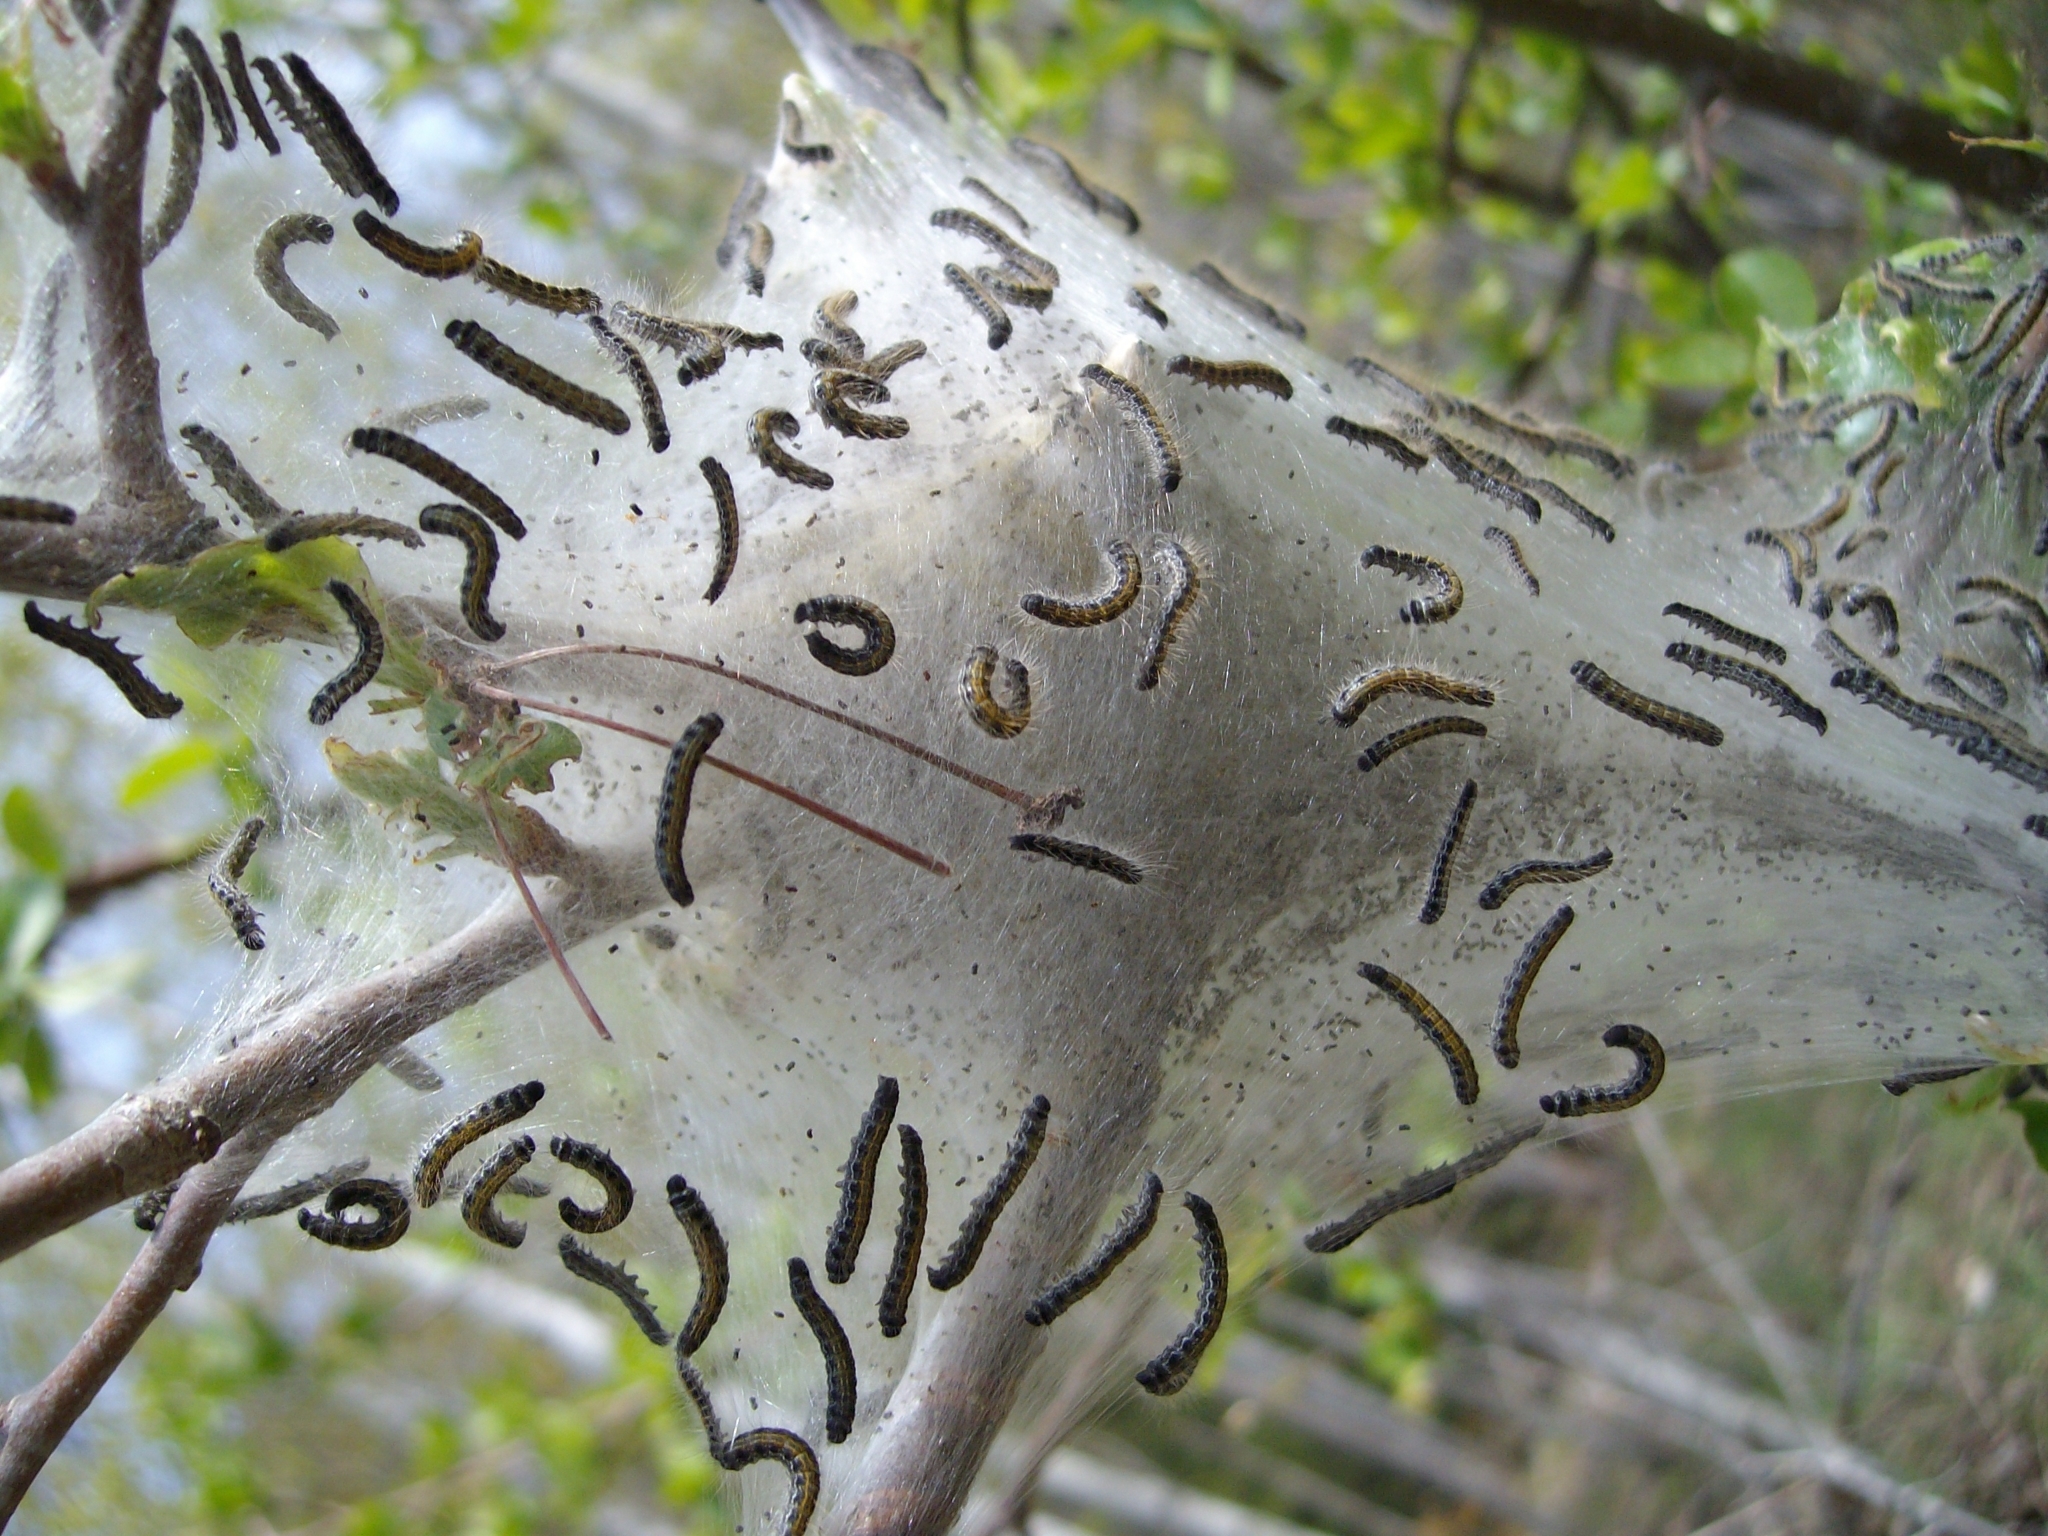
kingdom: Animalia
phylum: Arthropoda
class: Insecta
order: Lepidoptera
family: Lasiocampidae
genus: Malacosoma
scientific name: Malacosoma americana
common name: Eastern tent caterpillar moth
